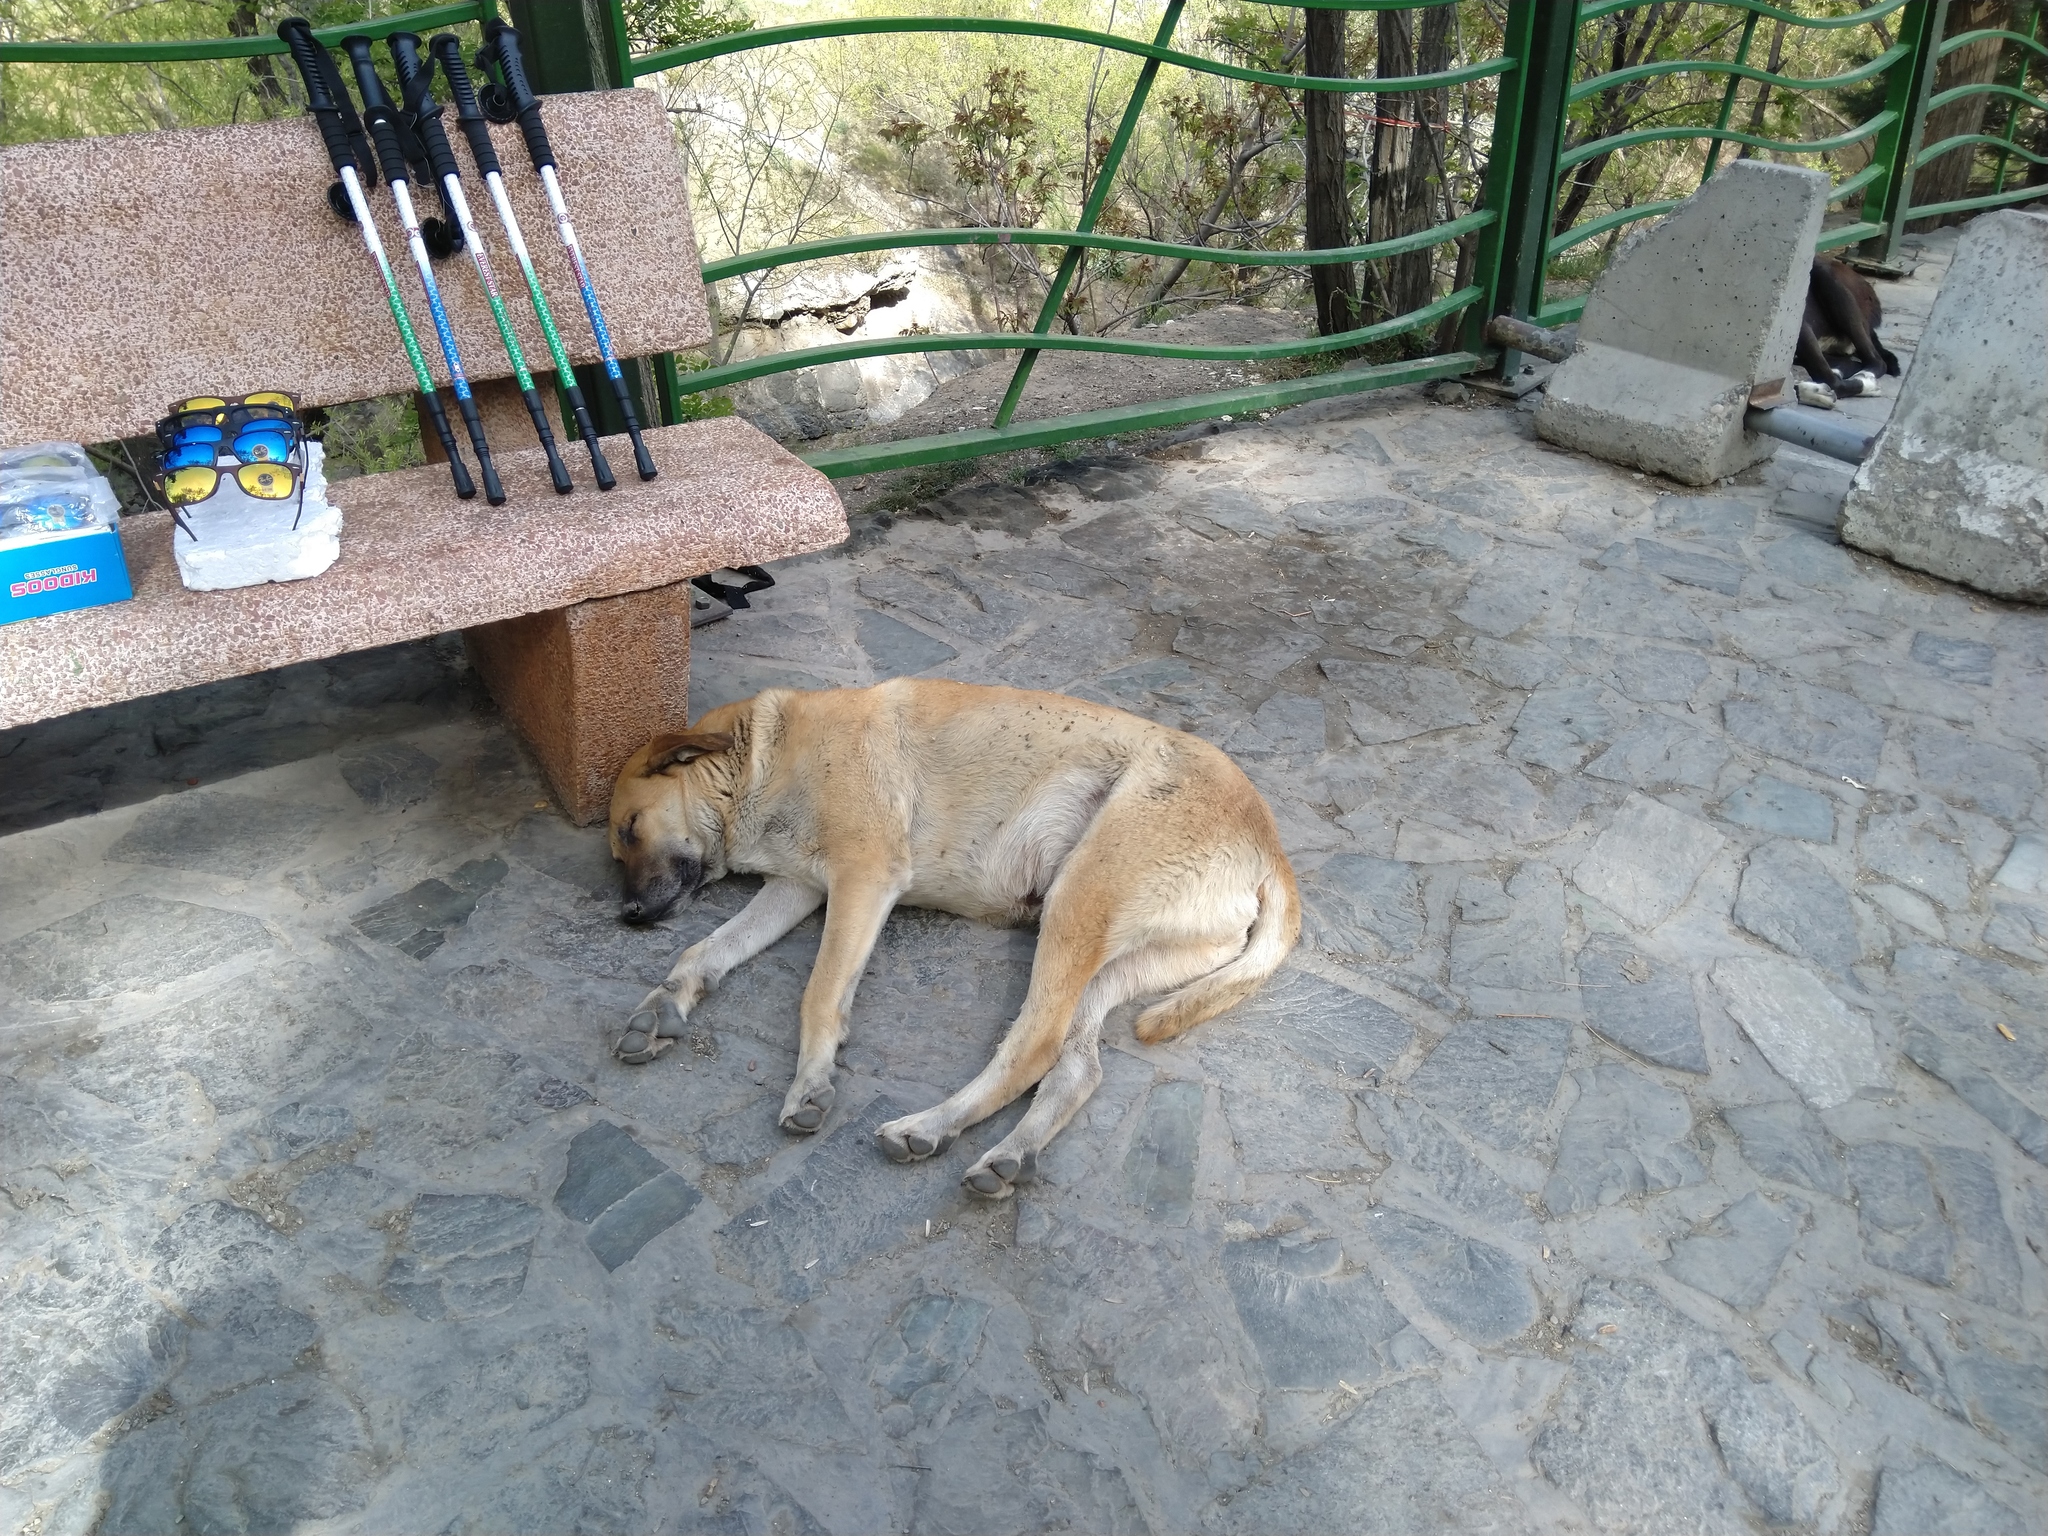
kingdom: Animalia
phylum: Chordata
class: Mammalia
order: Carnivora
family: Canidae
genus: Canis
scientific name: Canis lupus
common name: Gray wolf
